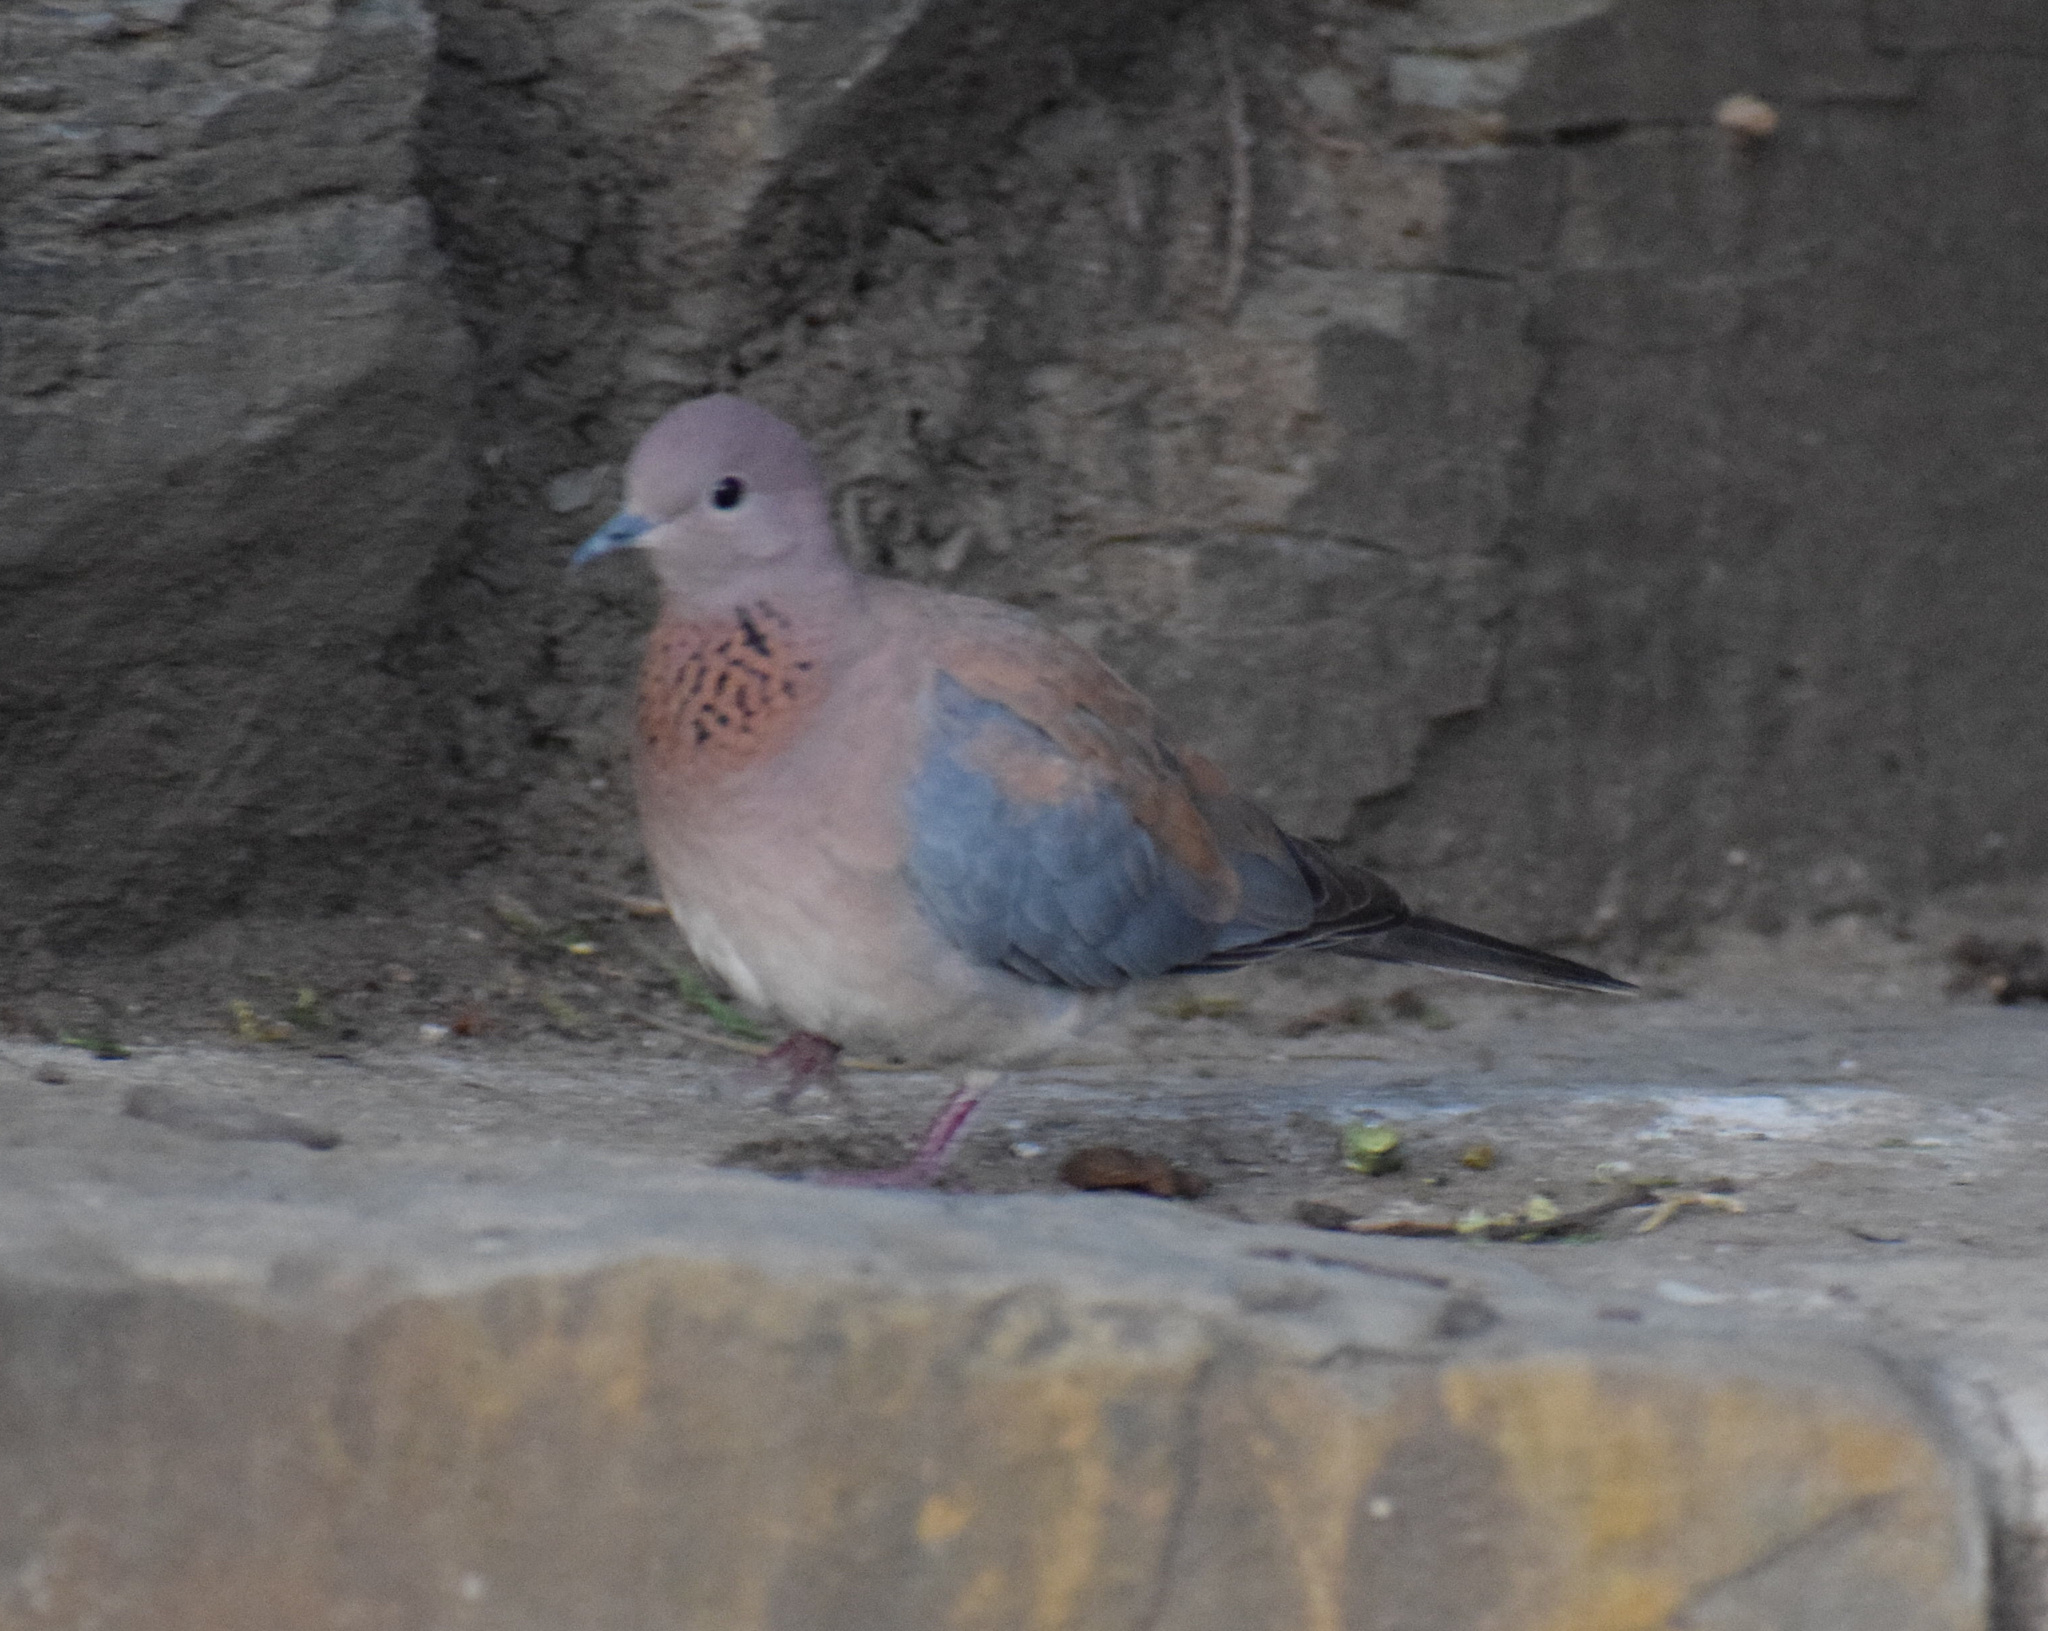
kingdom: Animalia
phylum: Chordata
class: Aves
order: Columbiformes
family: Columbidae
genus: Spilopelia
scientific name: Spilopelia senegalensis
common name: Laughing dove
